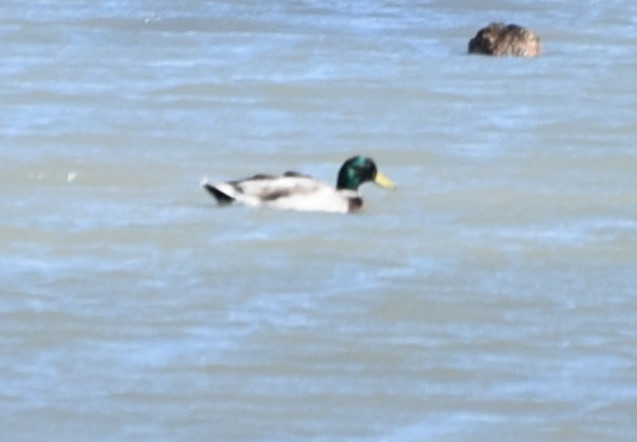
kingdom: Animalia
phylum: Chordata
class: Aves
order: Anseriformes
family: Anatidae
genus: Anas
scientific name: Anas platyrhynchos
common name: Mallard
